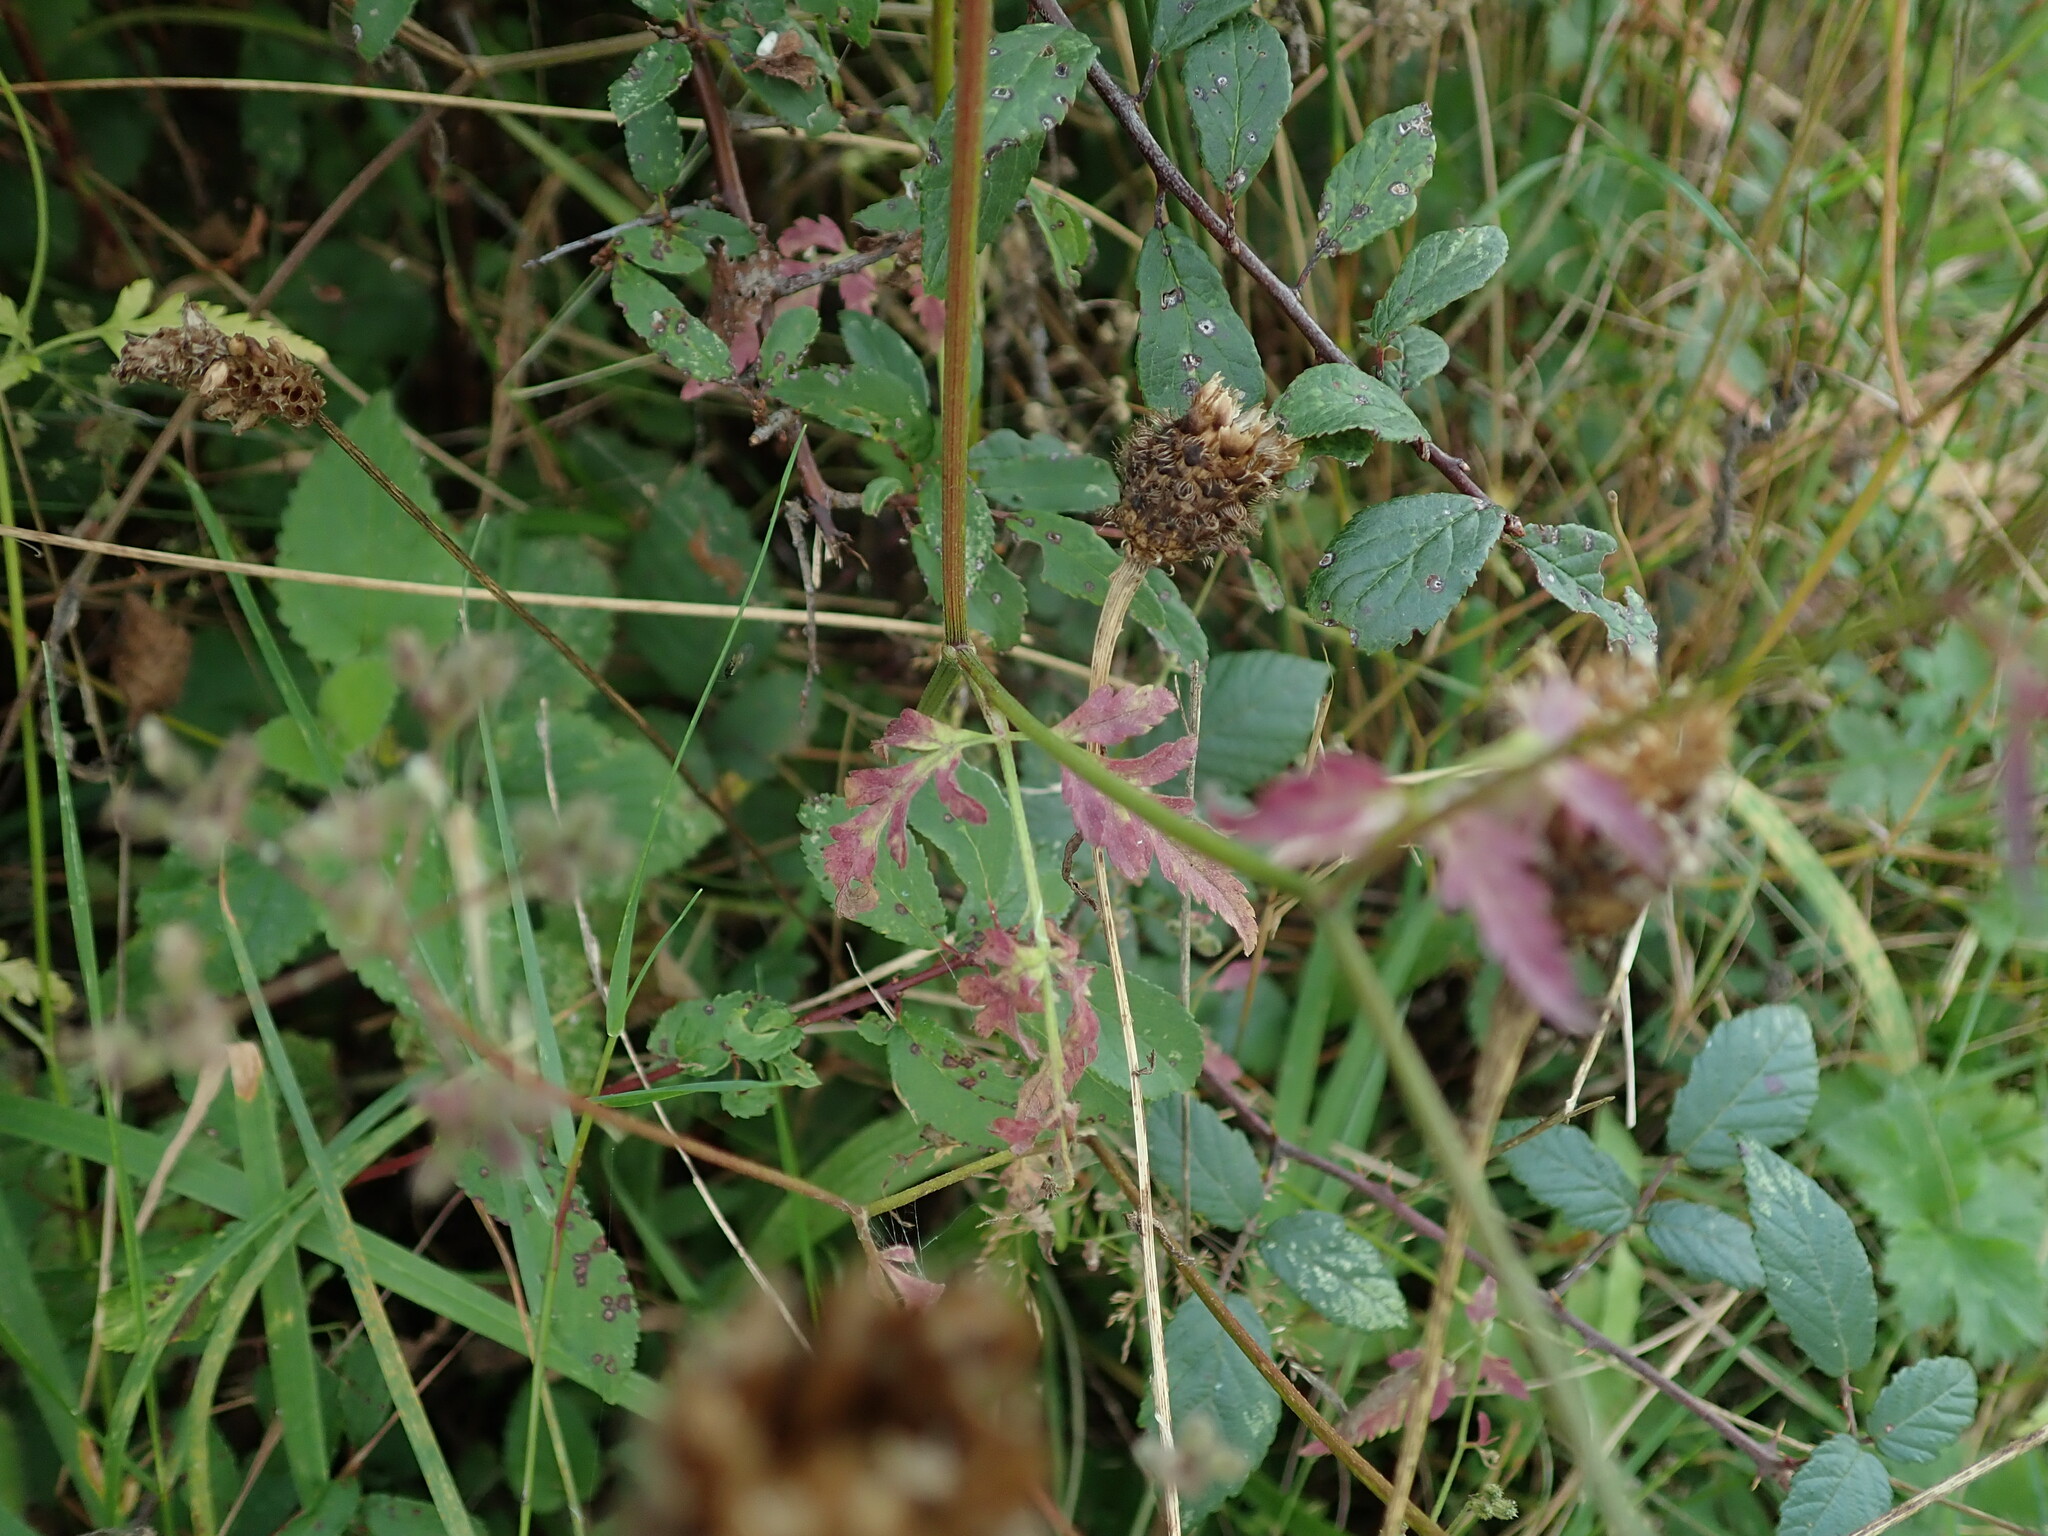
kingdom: Plantae
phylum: Tracheophyta
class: Magnoliopsida
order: Apiales
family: Apiaceae
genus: Torilis
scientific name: Torilis japonica
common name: Upright hedge-parsley
